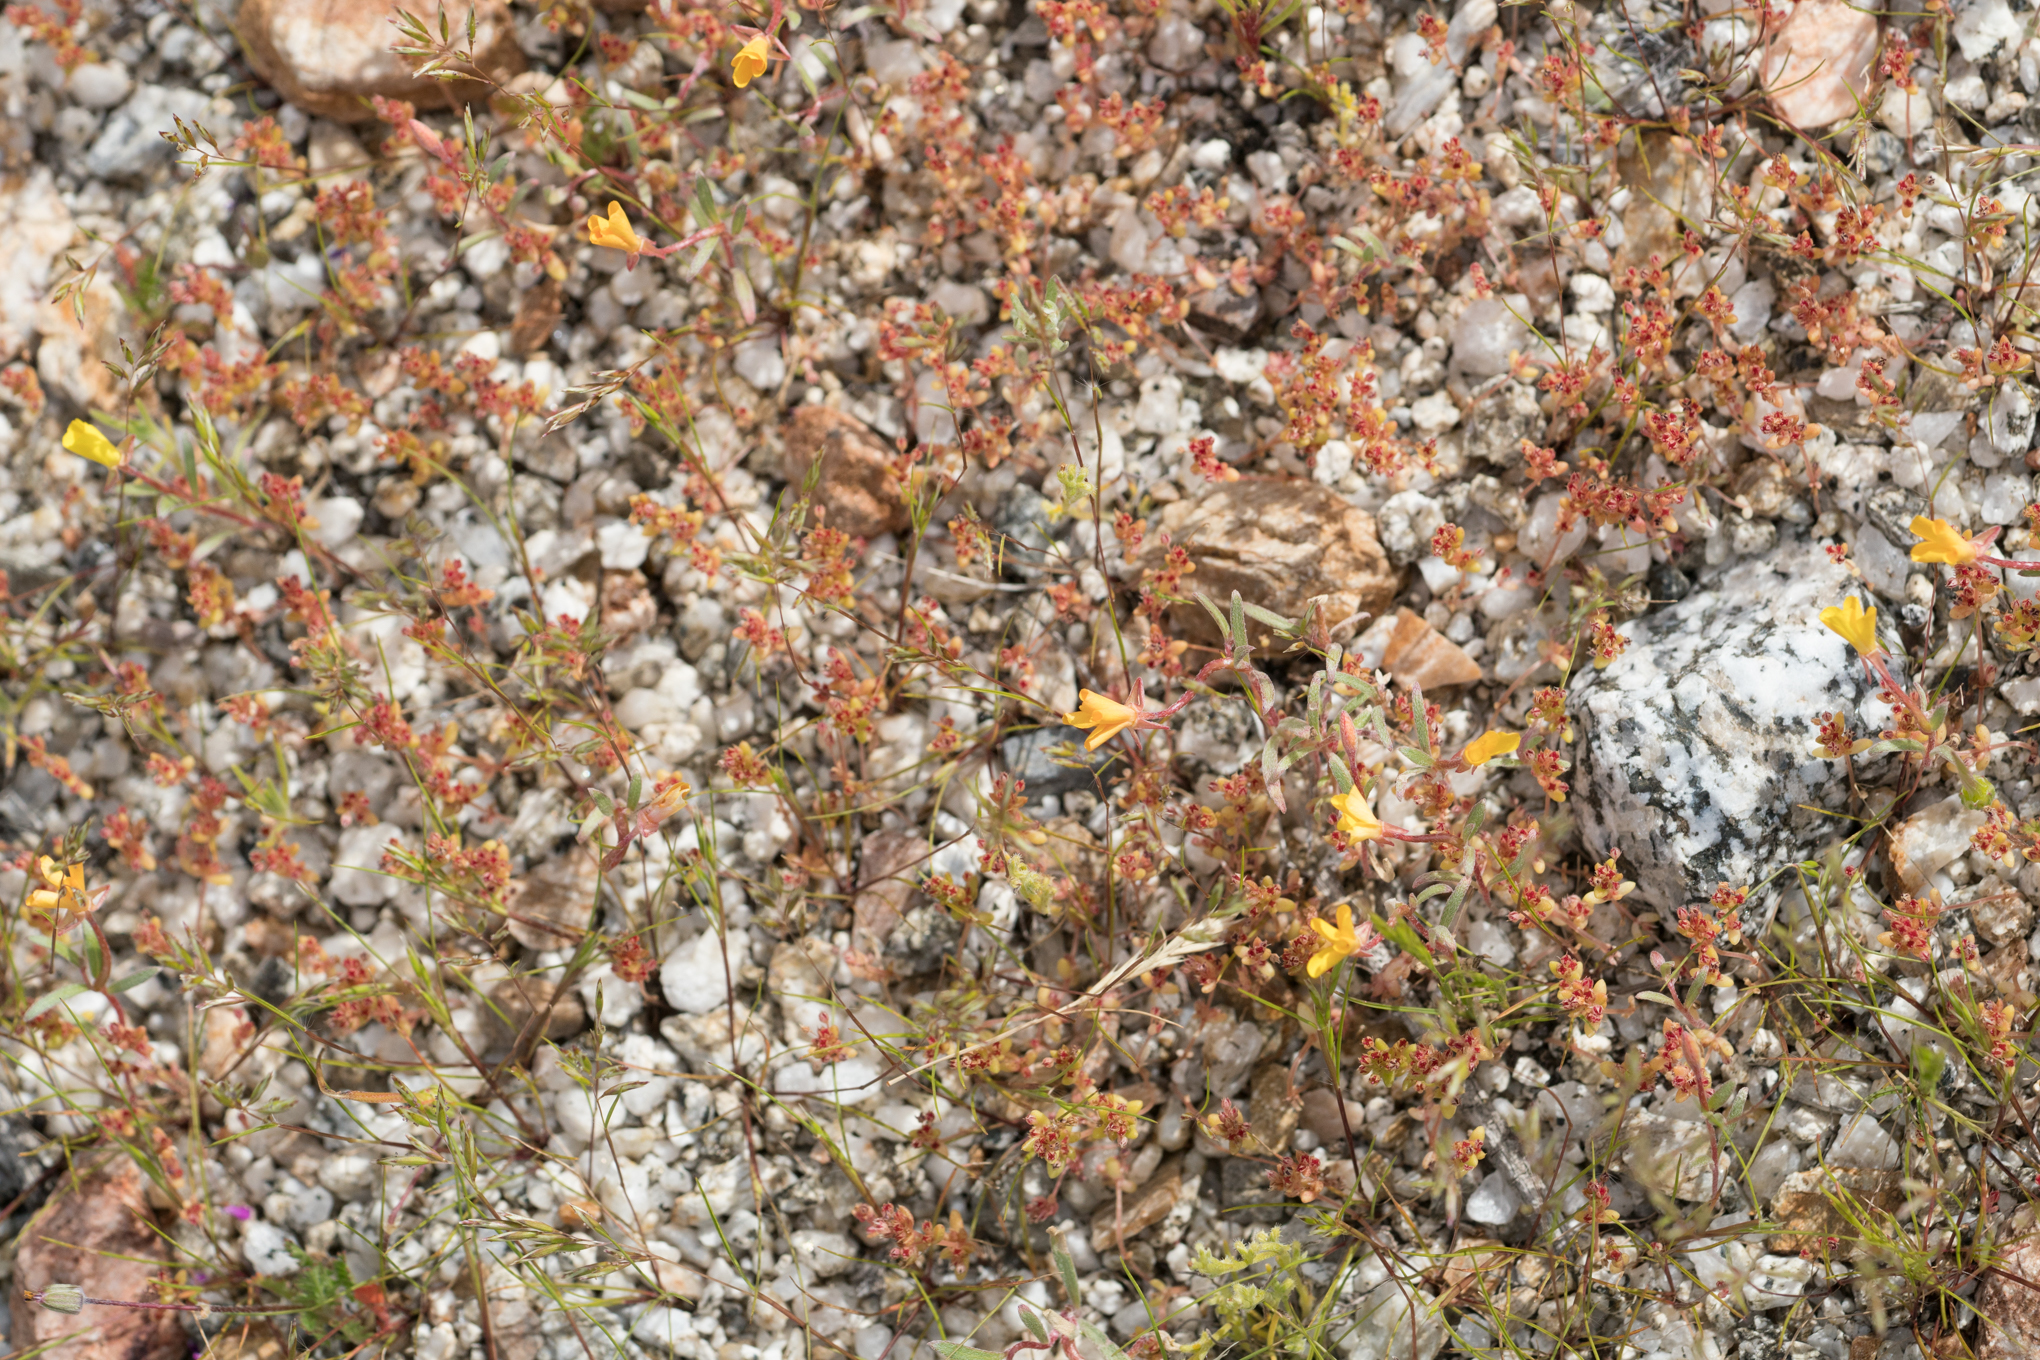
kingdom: Plantae
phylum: Tracheophyta
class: Magnoliopsida
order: Myrtales
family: Onagraceae
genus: Camissoniopsis
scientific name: Camissoniopsis pallida
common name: Paleyellow suncup
